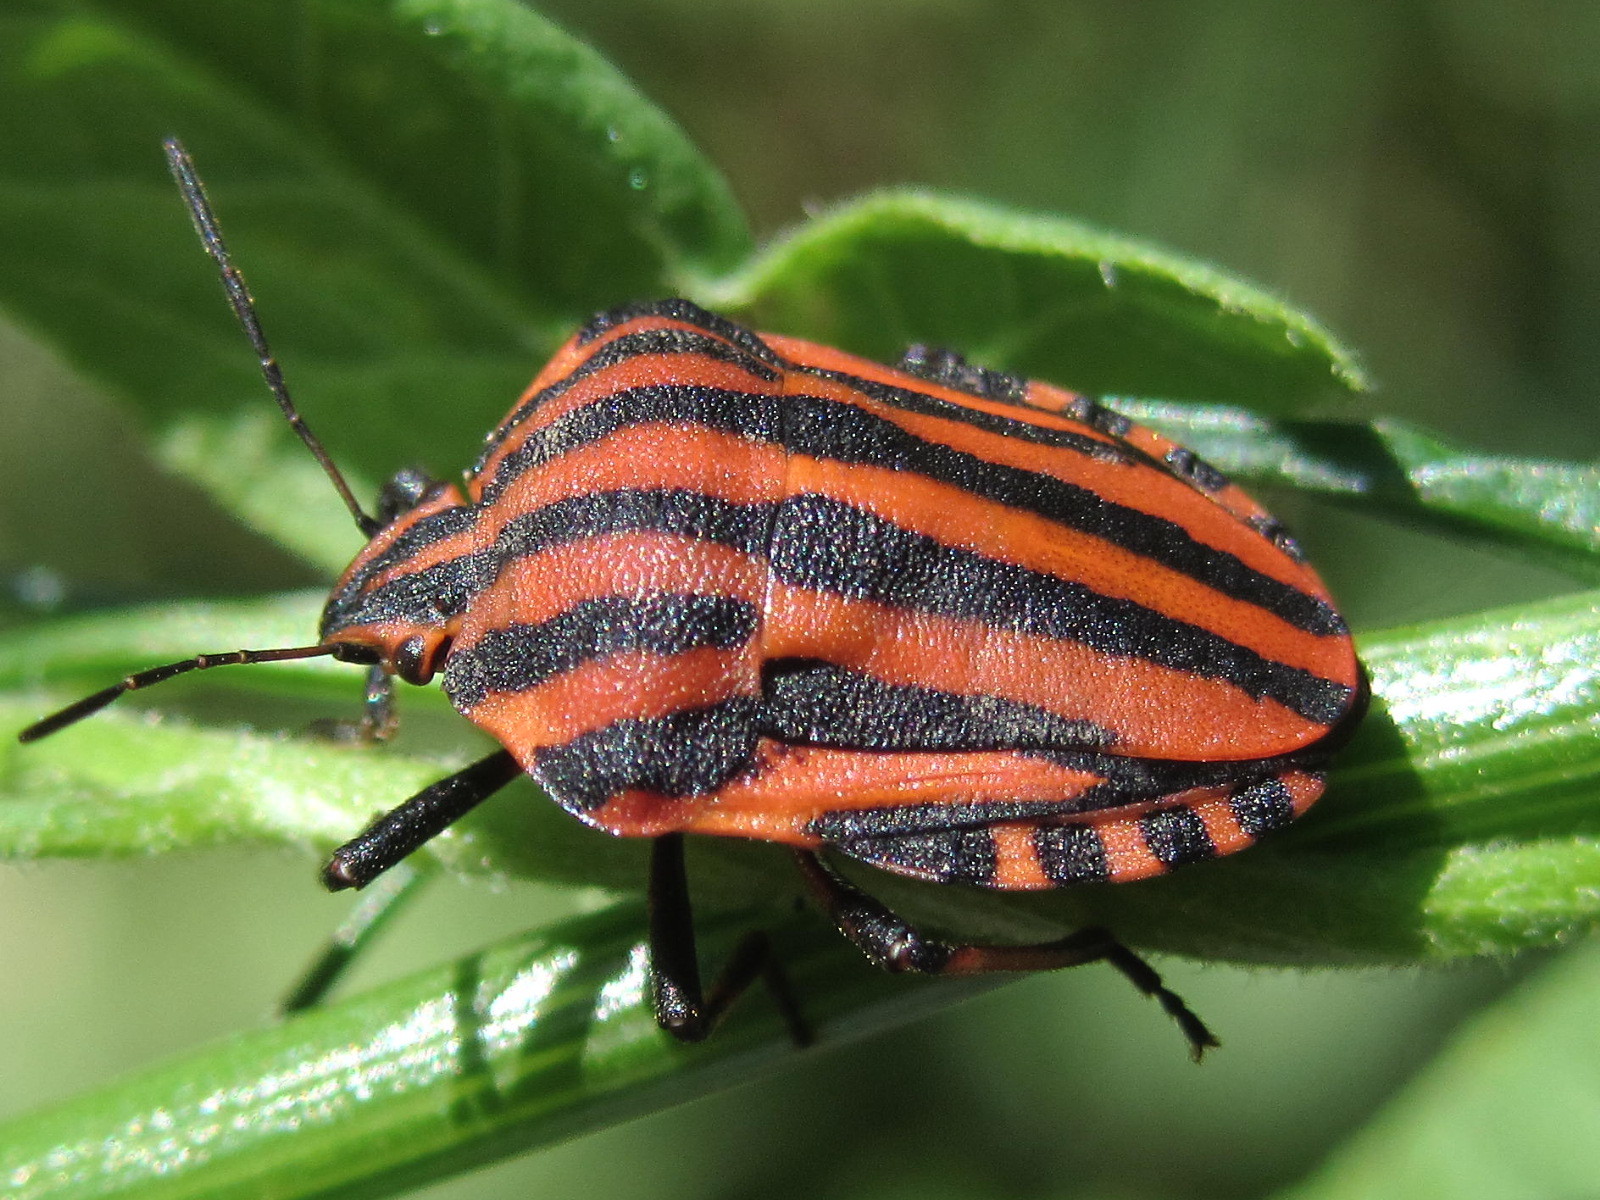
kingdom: Animalia
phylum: Arthropoda
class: Insecta
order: Hemiptera
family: Pentatomidae
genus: Graphosoma
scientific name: Graphosoma italicum
